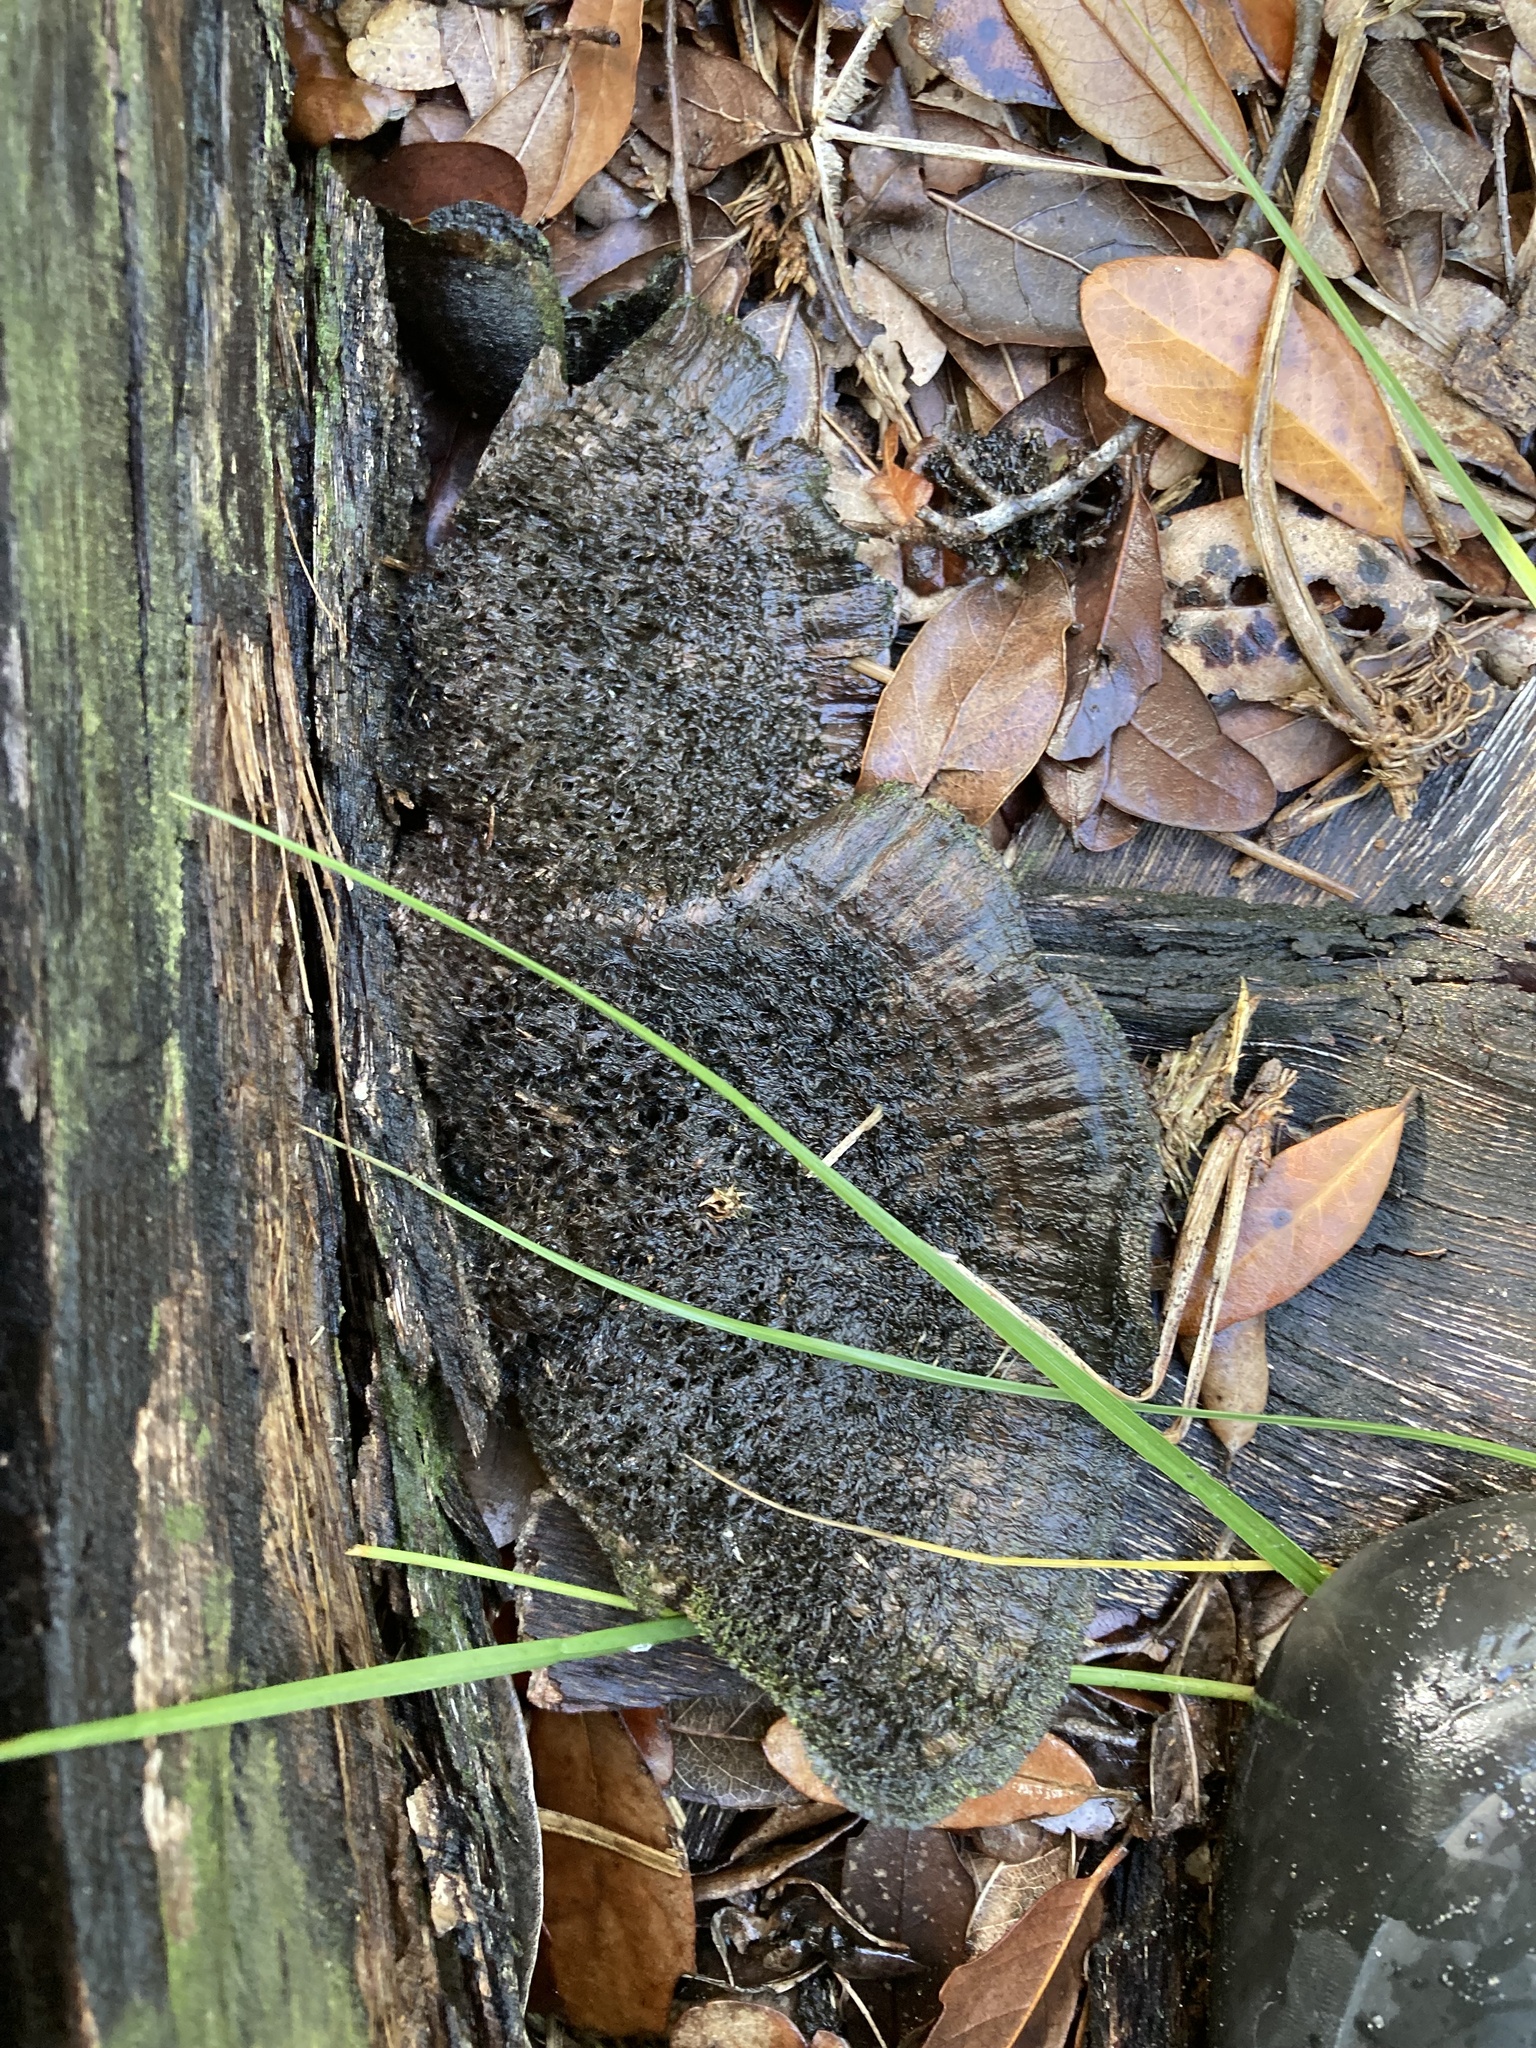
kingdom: Fungi
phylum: Basidiomycota
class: Agaricomycetes
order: Polyporales
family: Cerrenaceae
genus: Cerrena
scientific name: Cerrena hydnoides
